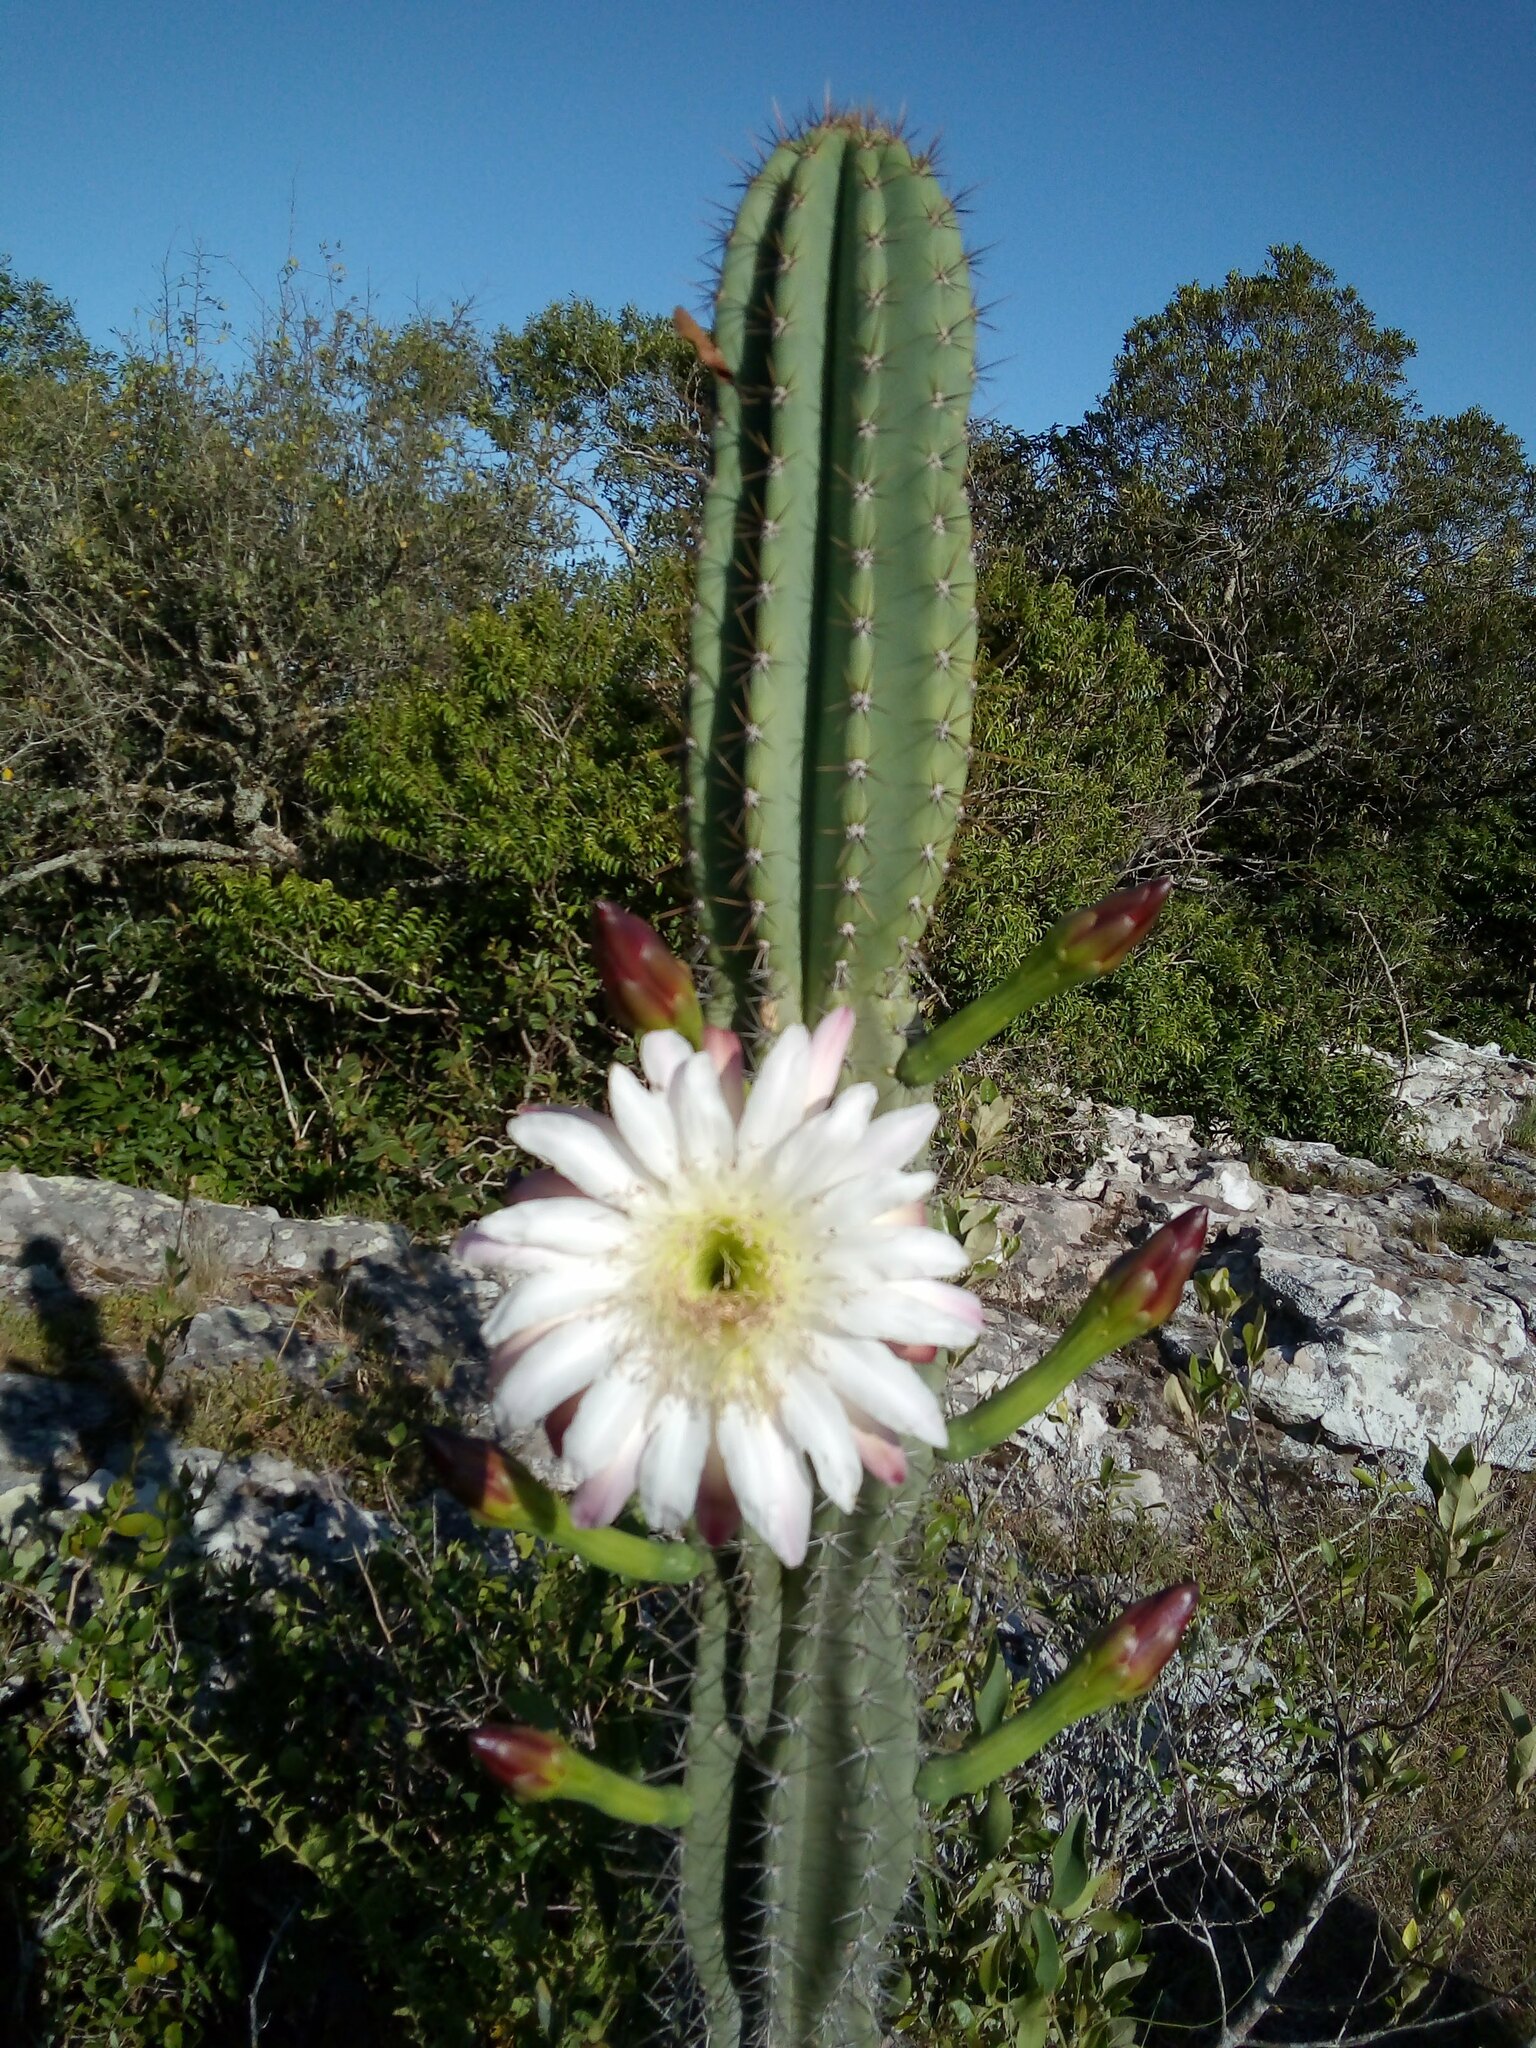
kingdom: Plantae
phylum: Tracheophyta
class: Magnoliopsida
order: Caryophyllales
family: Cactaceae
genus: Cereus
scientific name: Cereus hildmannianus
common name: Hedge cactus
